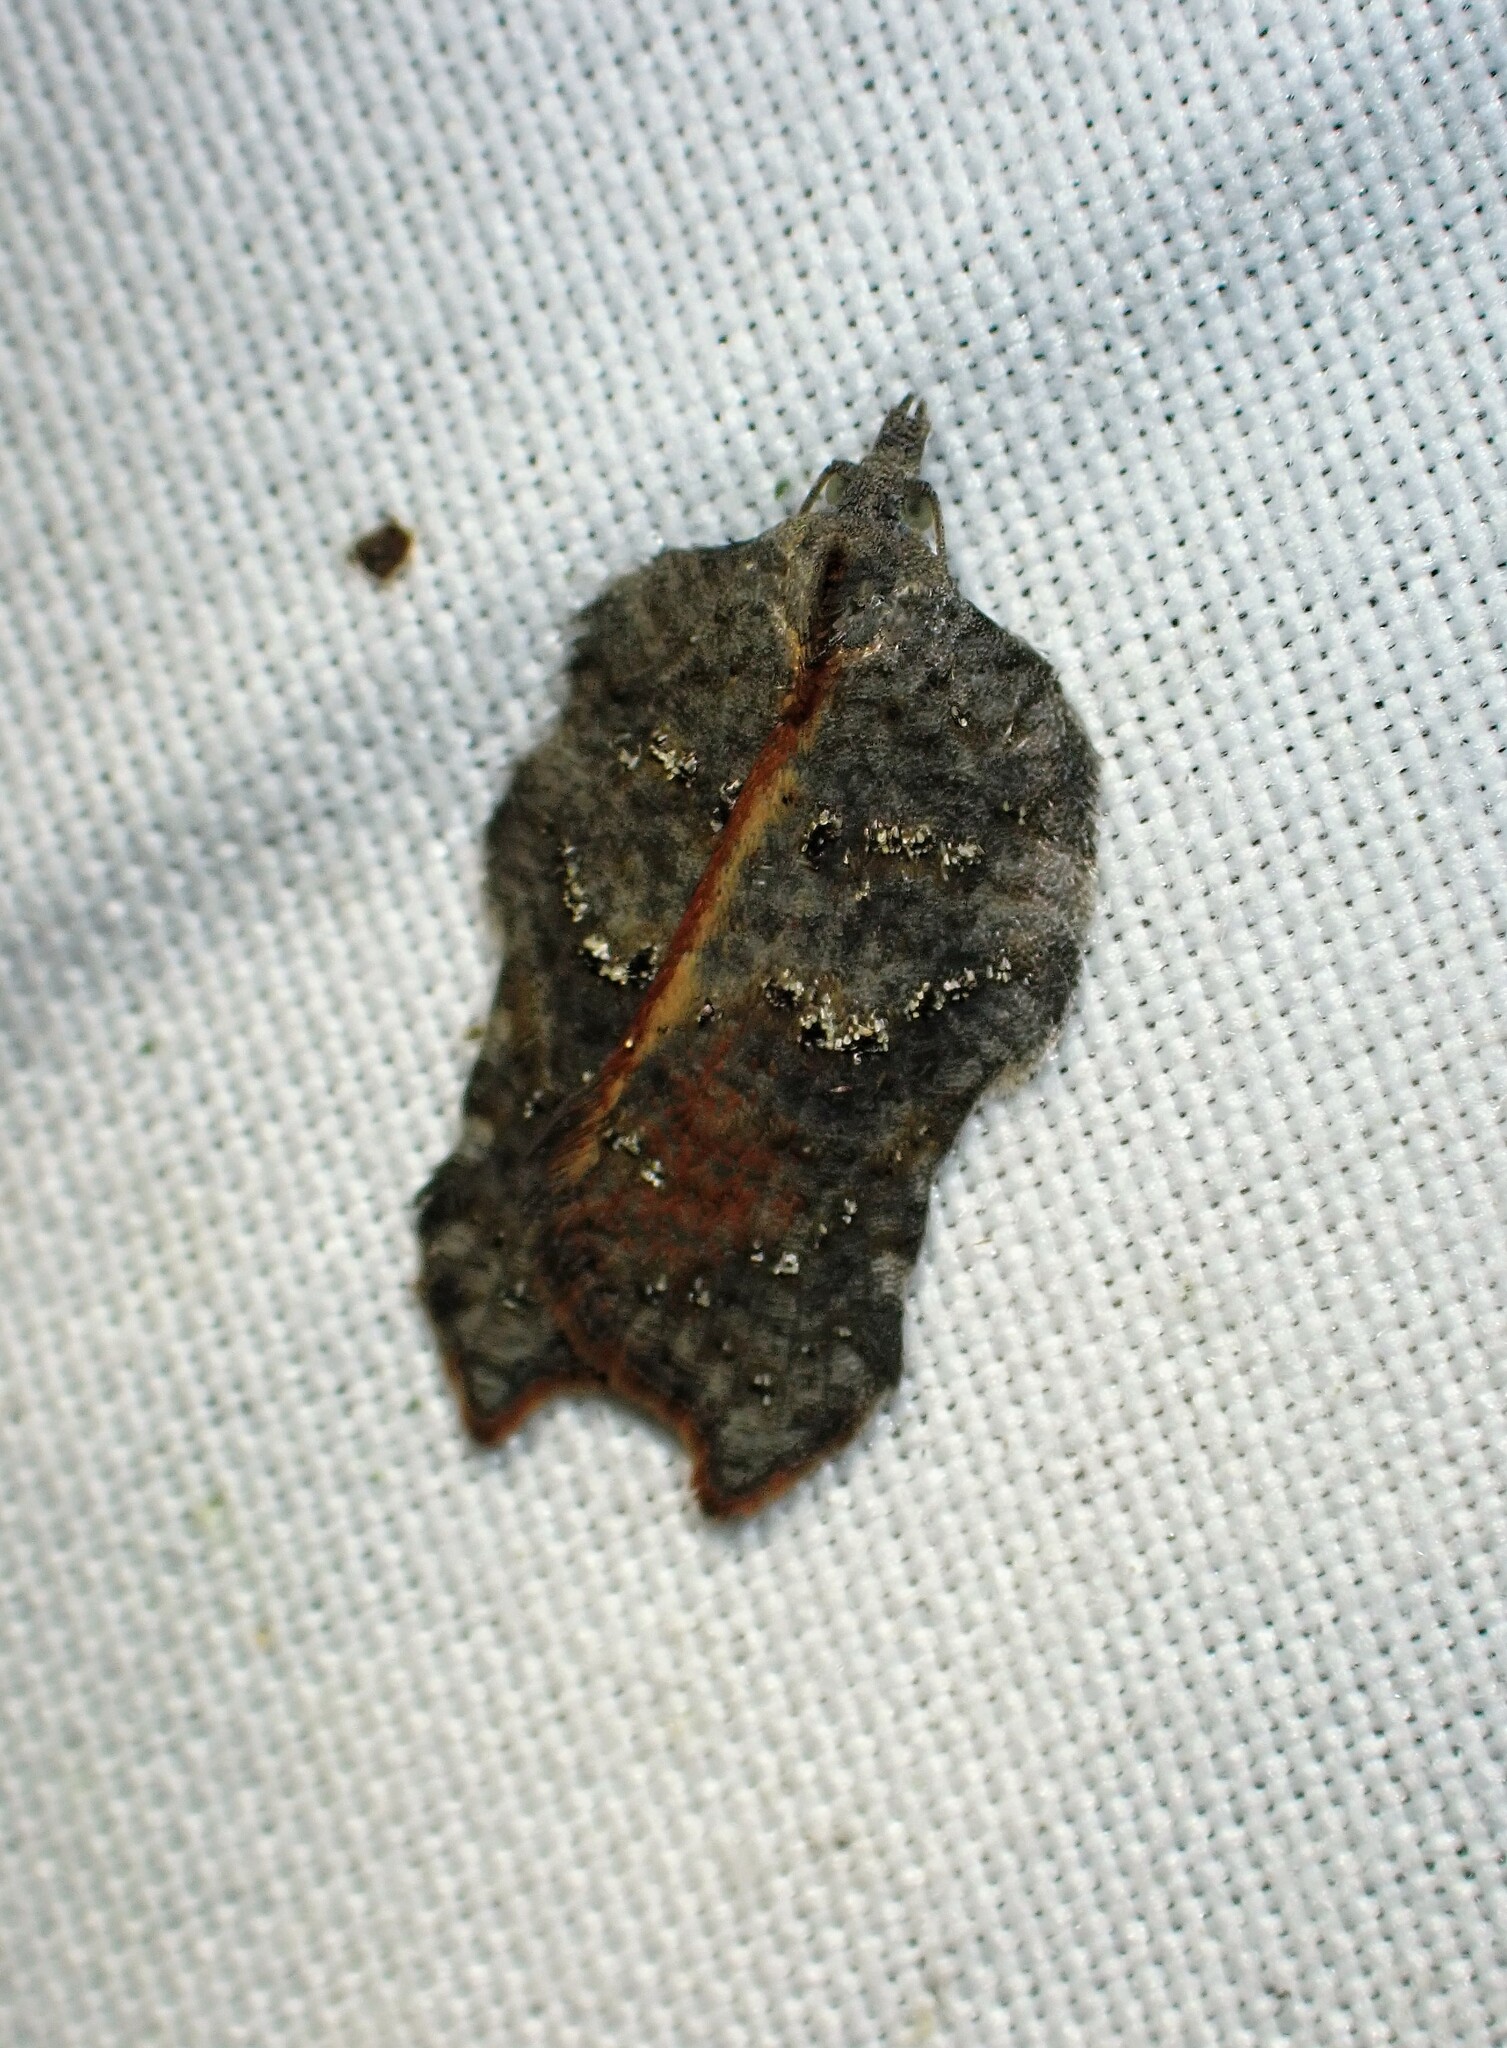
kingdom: Animalia
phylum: Arthropoda
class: Insecta
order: Lepidoptera
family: Tortricidae
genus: Acleris
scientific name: Acleris effractana
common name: Hook-winged tortrix moth
